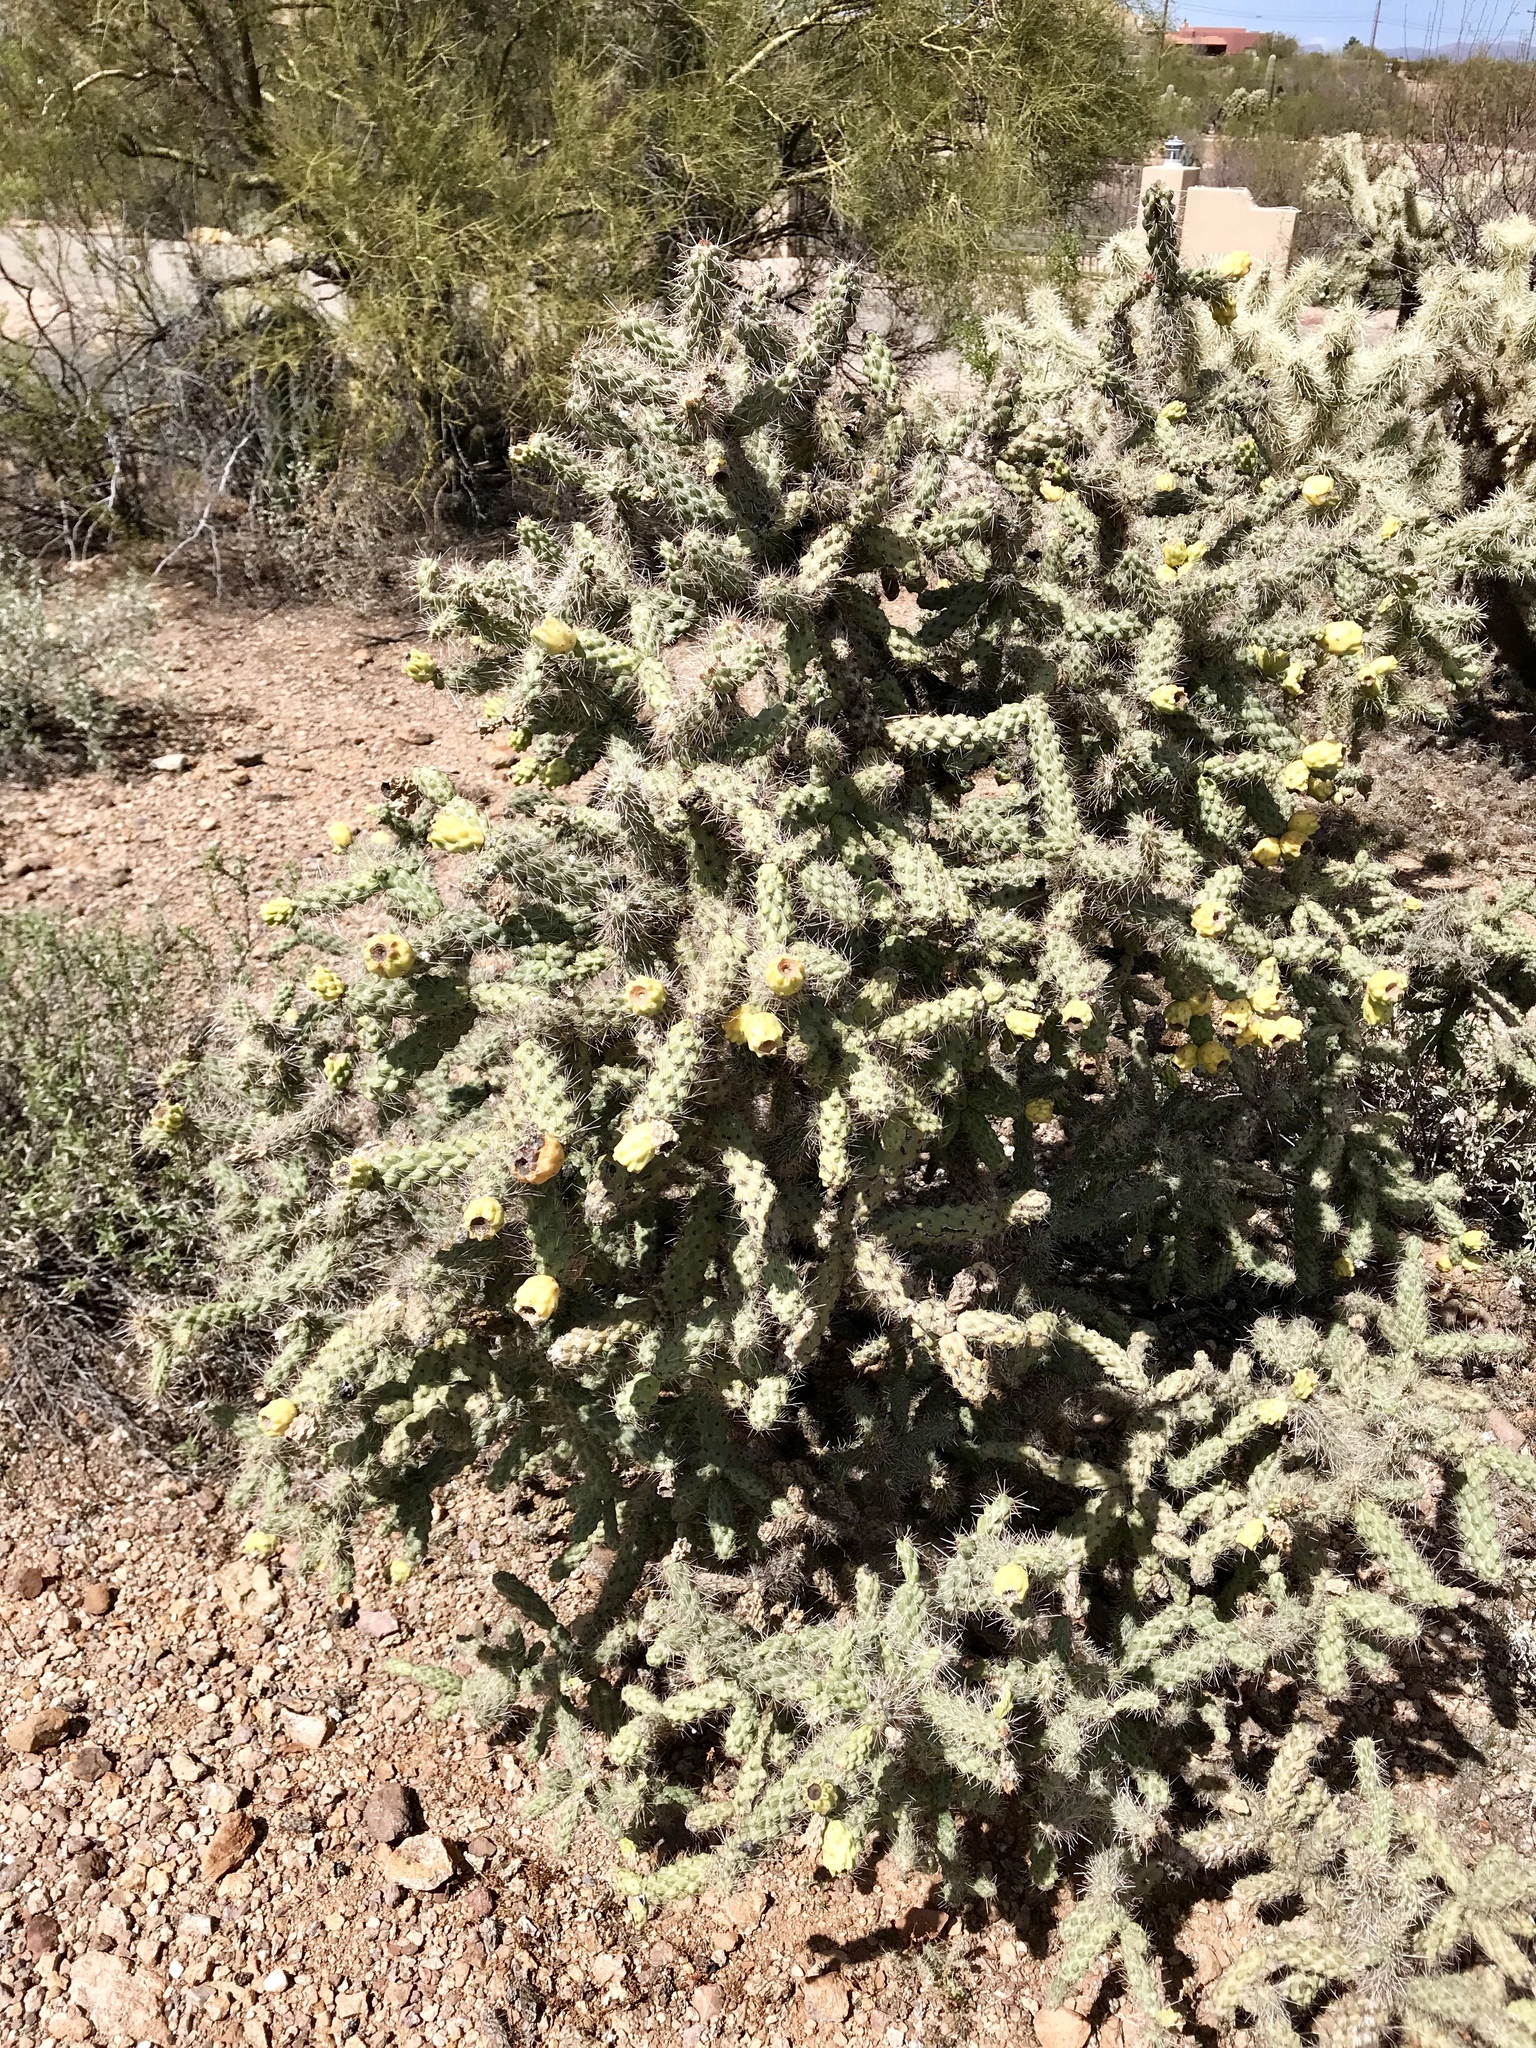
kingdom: Plantae
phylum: Tracheophyta
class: Magnoliopsida
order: Caryophyllales
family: Cactaceae
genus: Cylindropuntia
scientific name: Cylindropuntia imbricata
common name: Candelabrum cactus
